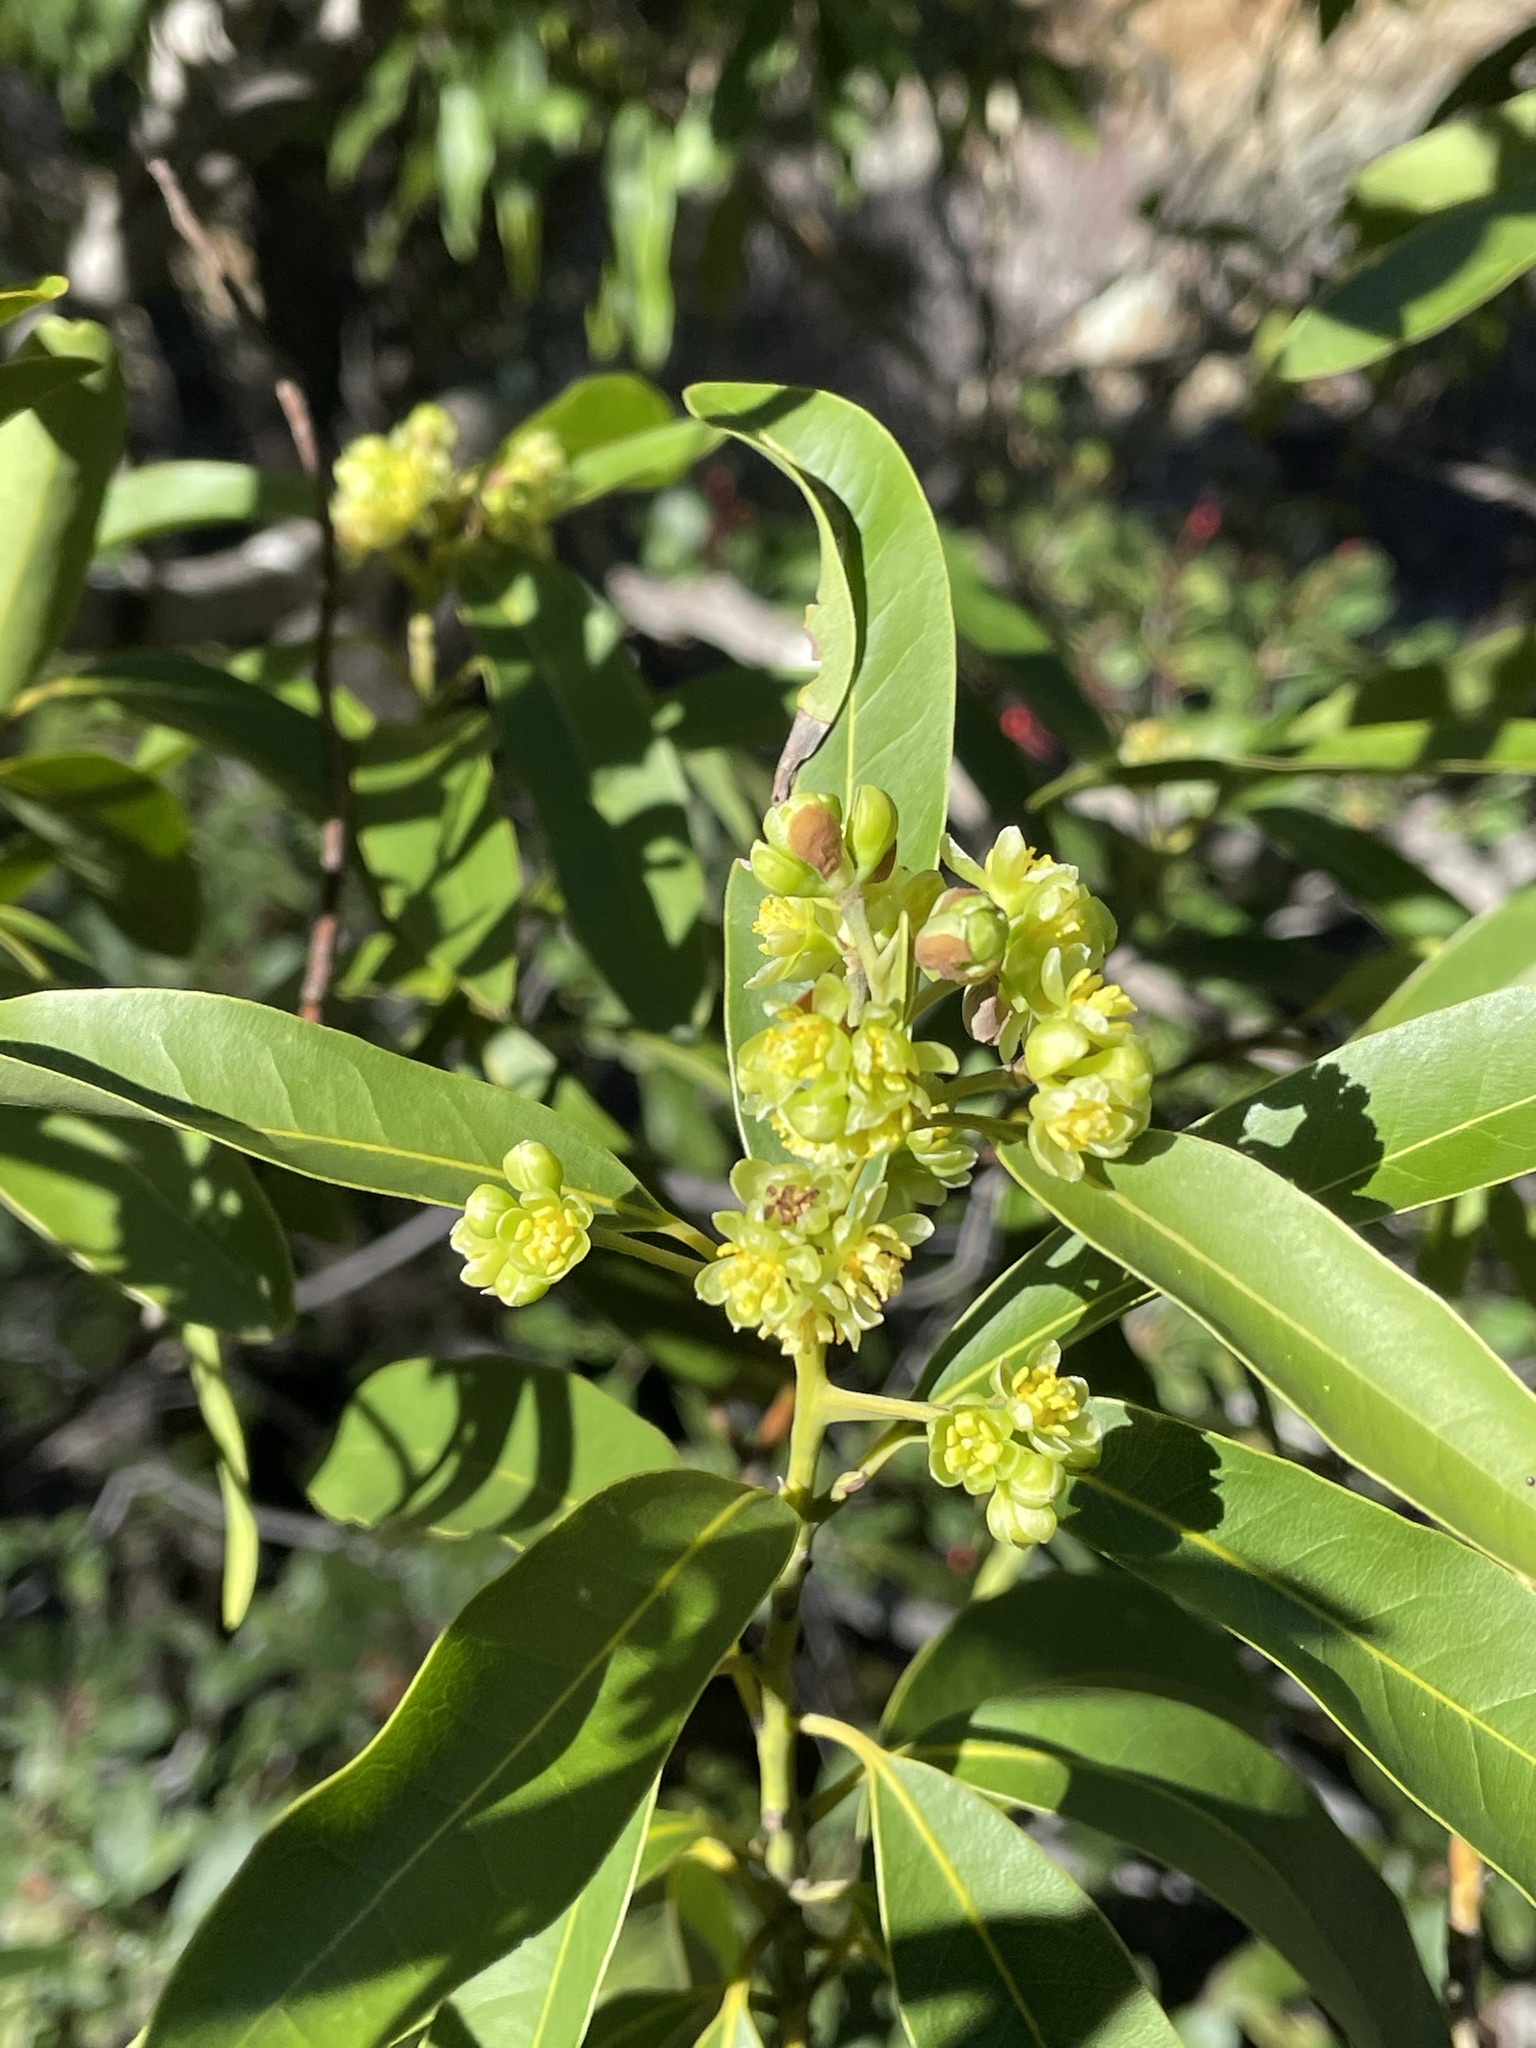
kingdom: Plantae
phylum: Tracheophyta
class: Magnoliopsida
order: Laurales
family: Lauraceae
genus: Umbellularia
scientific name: Umbellularia californica
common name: California bay
